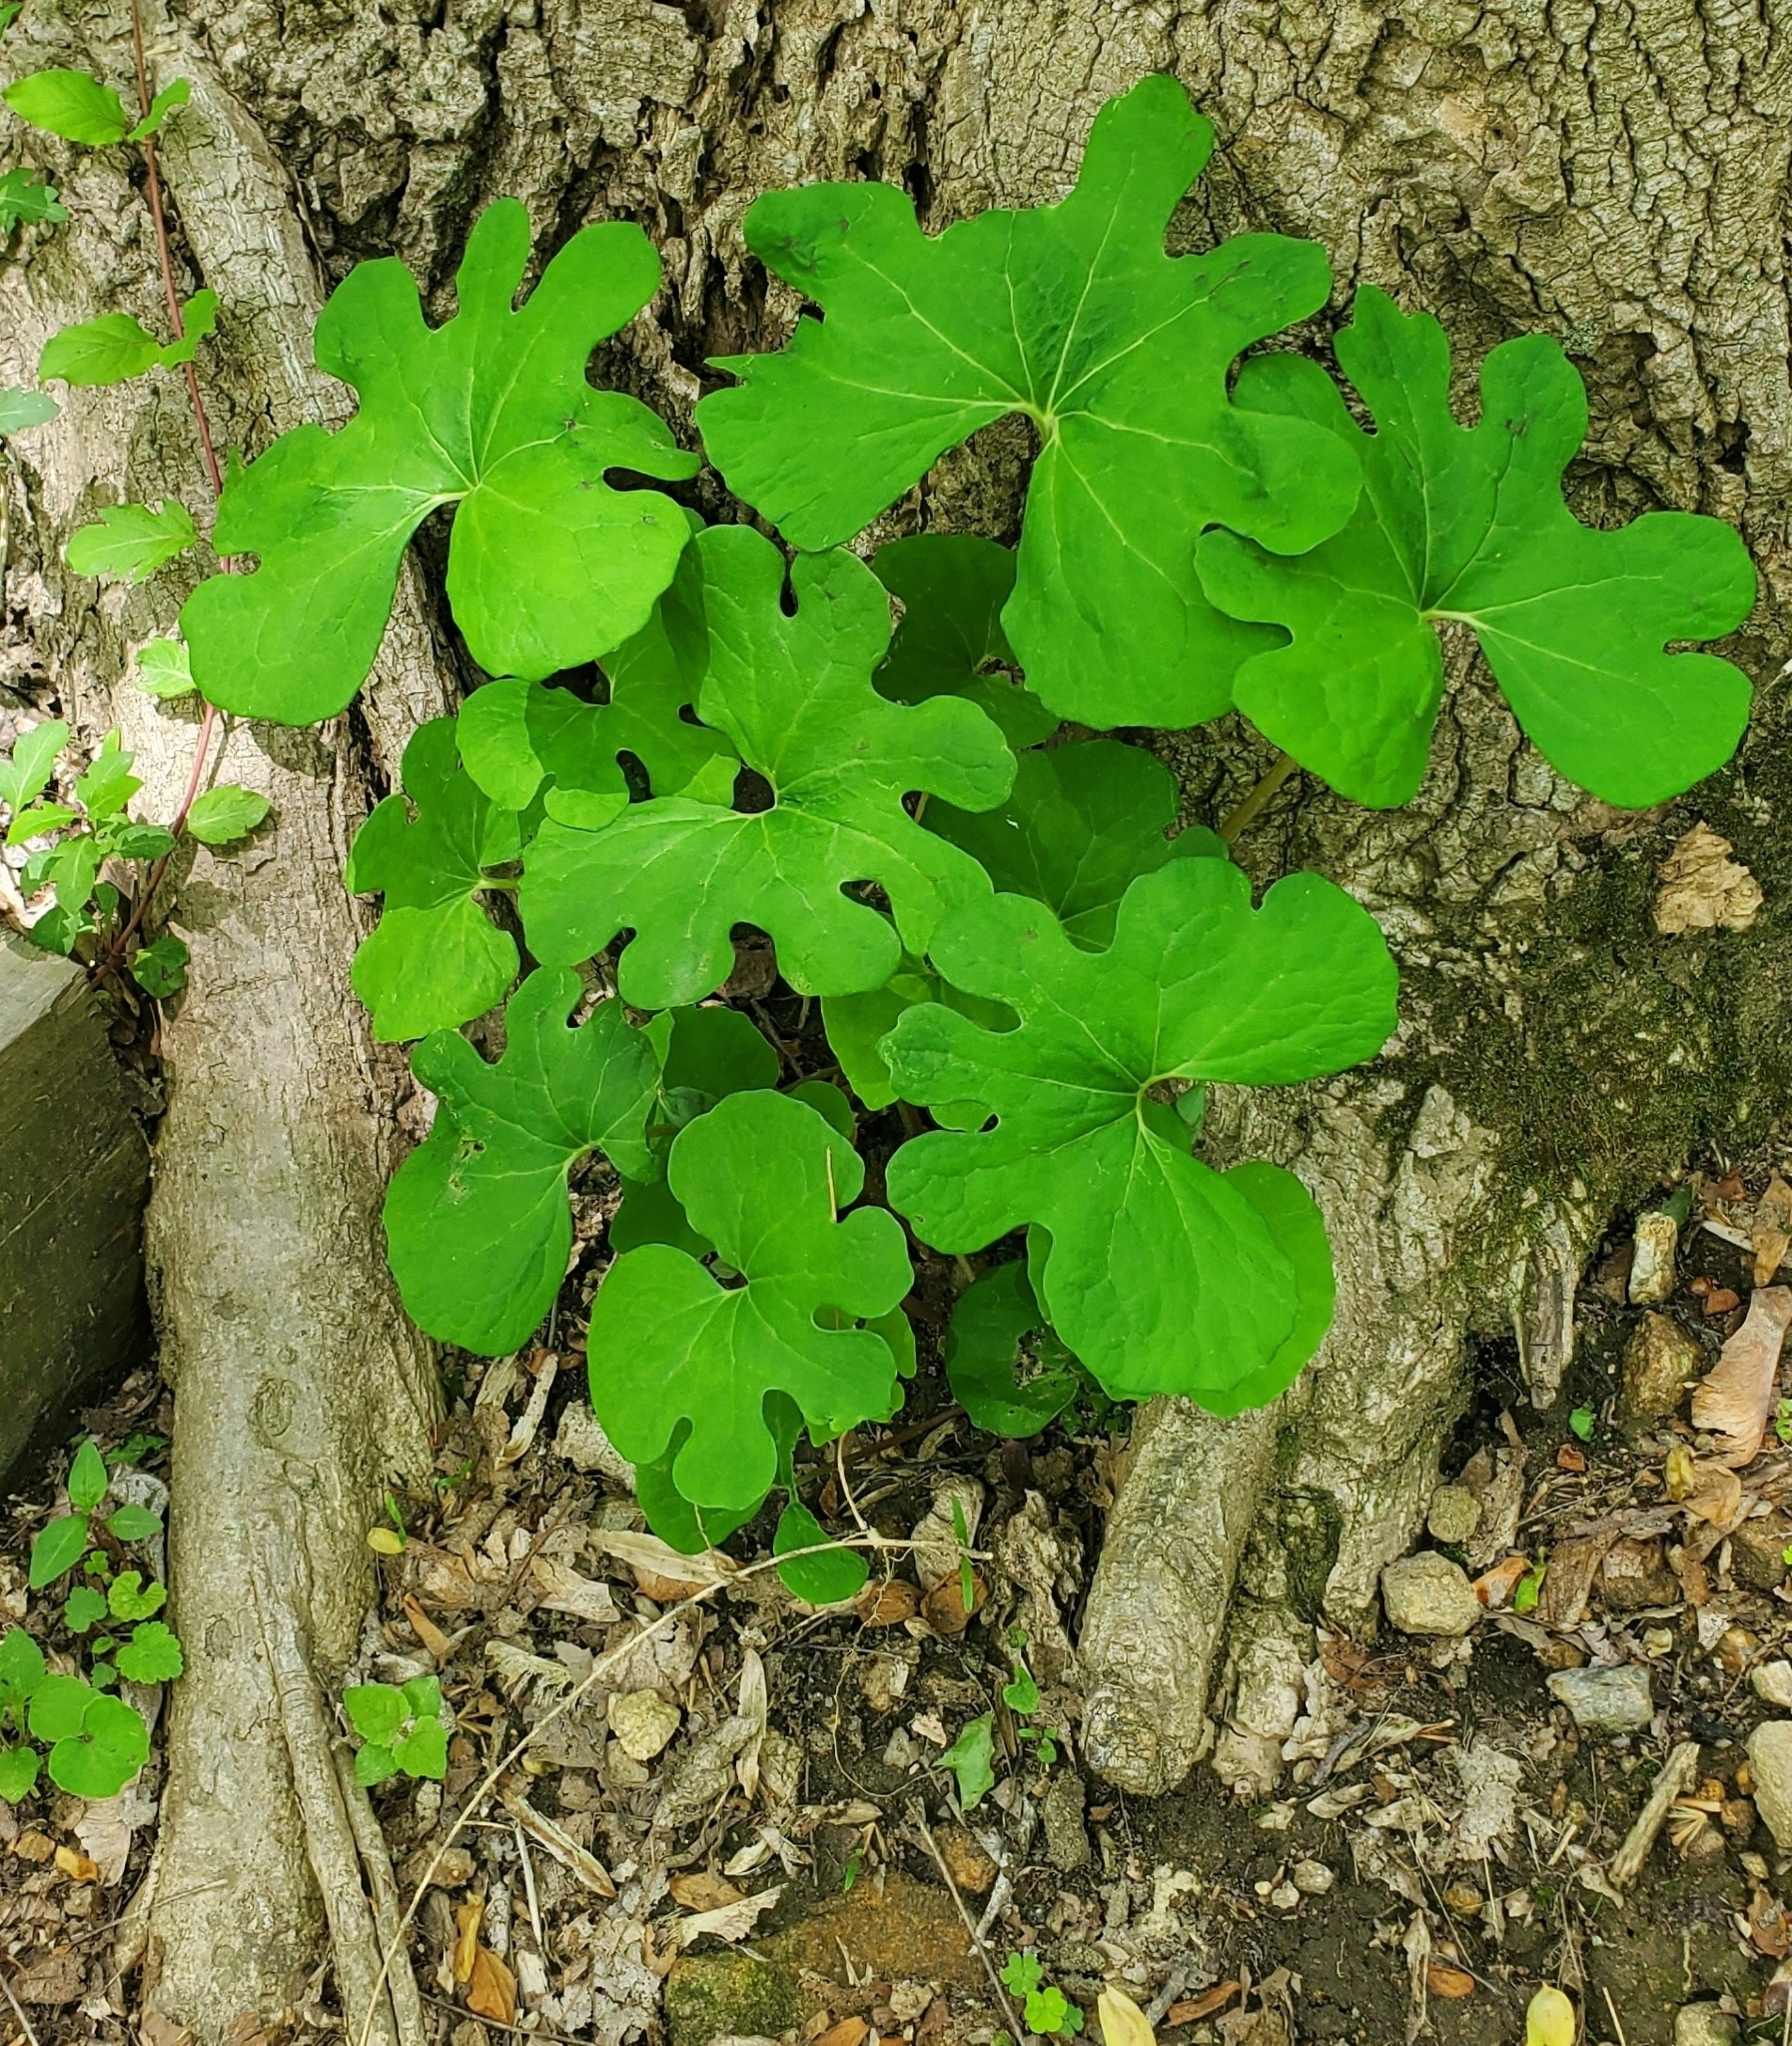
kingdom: Plantae
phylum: Tracheophyta
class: Magnoliopsida
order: Ranunculales
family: Papaveraceae
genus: Sanguinaria
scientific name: Sanguinaria canadensis
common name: Bloodroot
